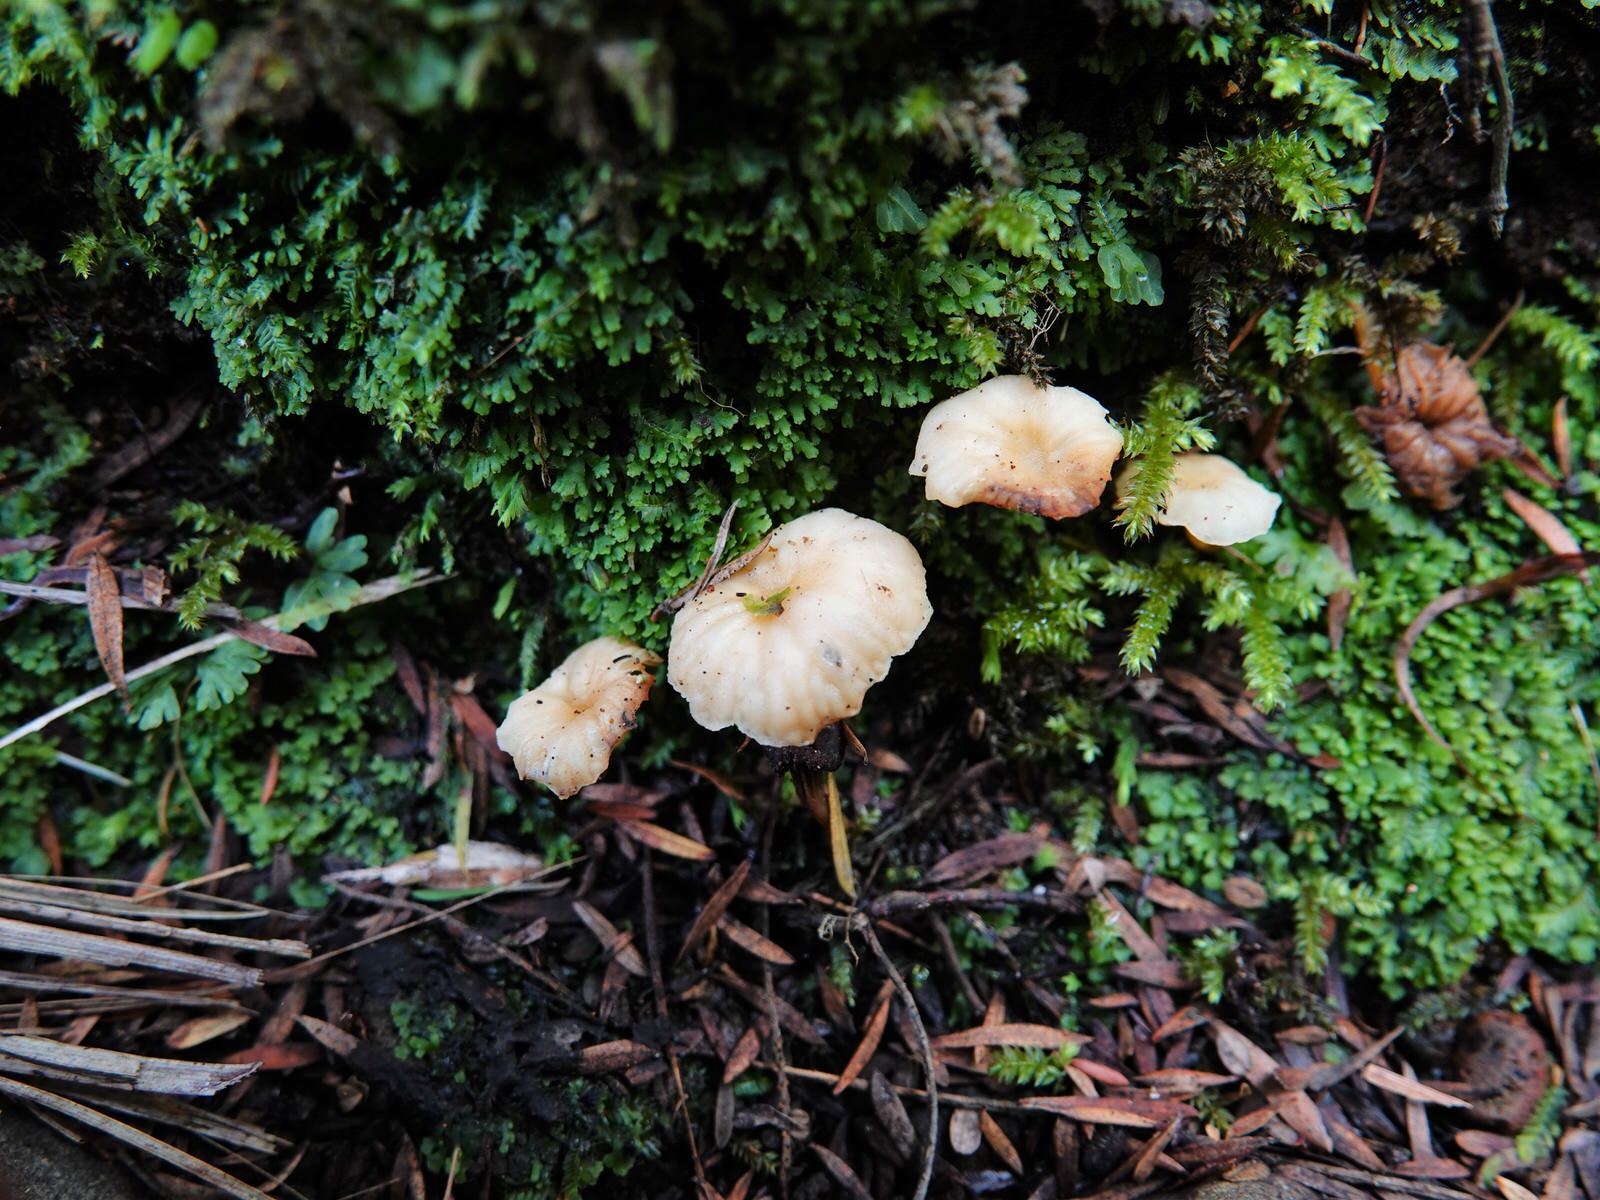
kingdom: Fungi
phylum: Basidiomycota
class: Agaricomycetes
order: Cantharellales
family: Hydnaceae
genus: Cantharellus
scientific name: Cantharellus wellingtonensis
